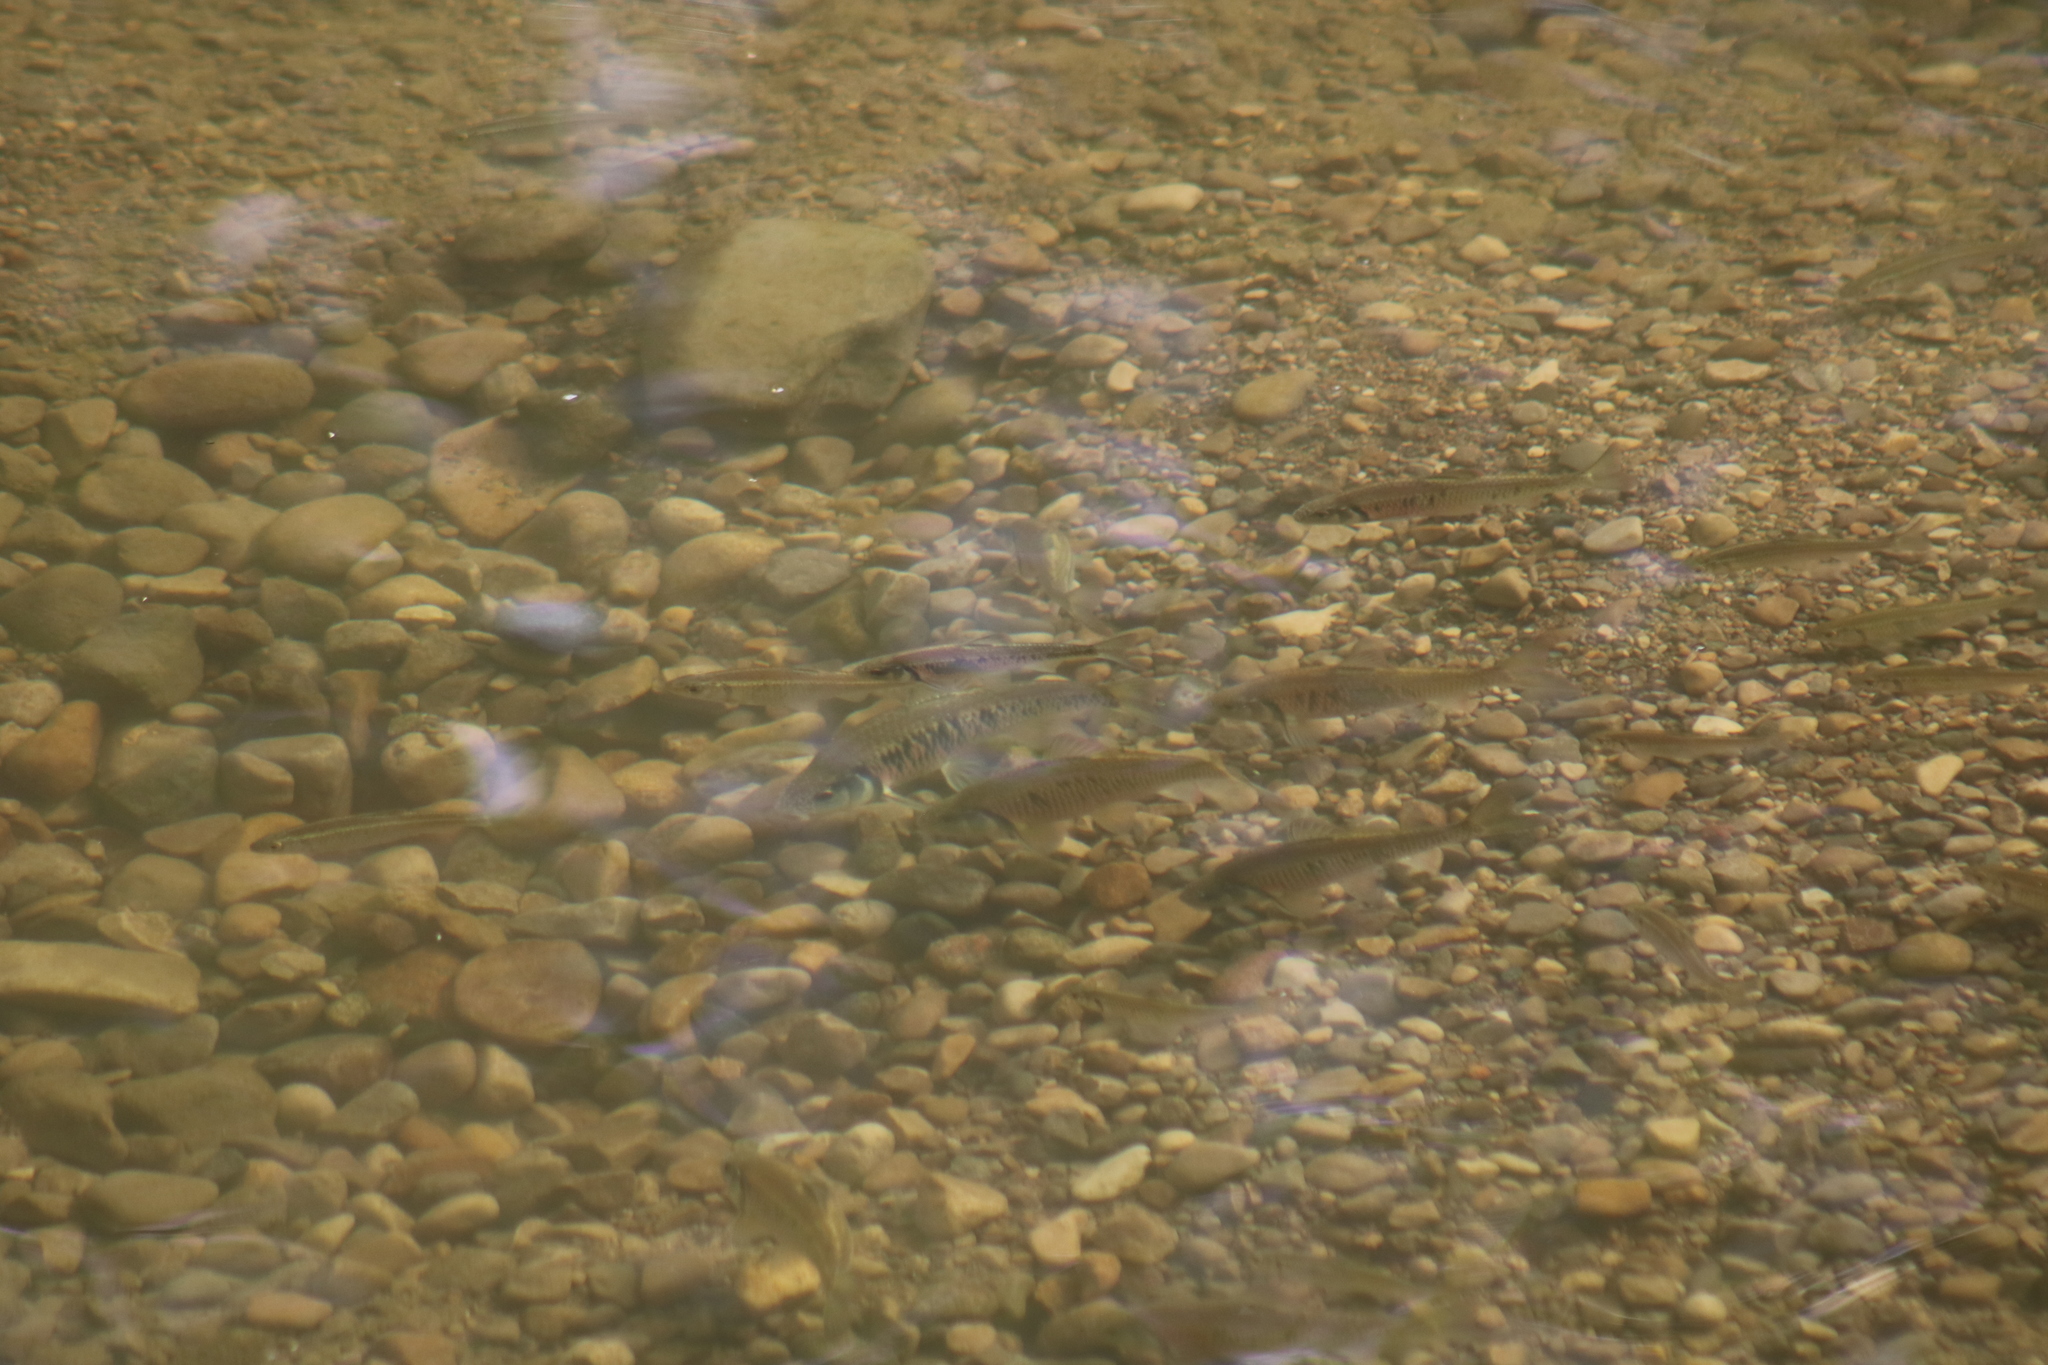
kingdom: Animalia
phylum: Chordata
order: Cypriniformes
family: Cyprinidae
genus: Luxilus
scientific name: Luxilus chrysocephalus
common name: Striped shiner
